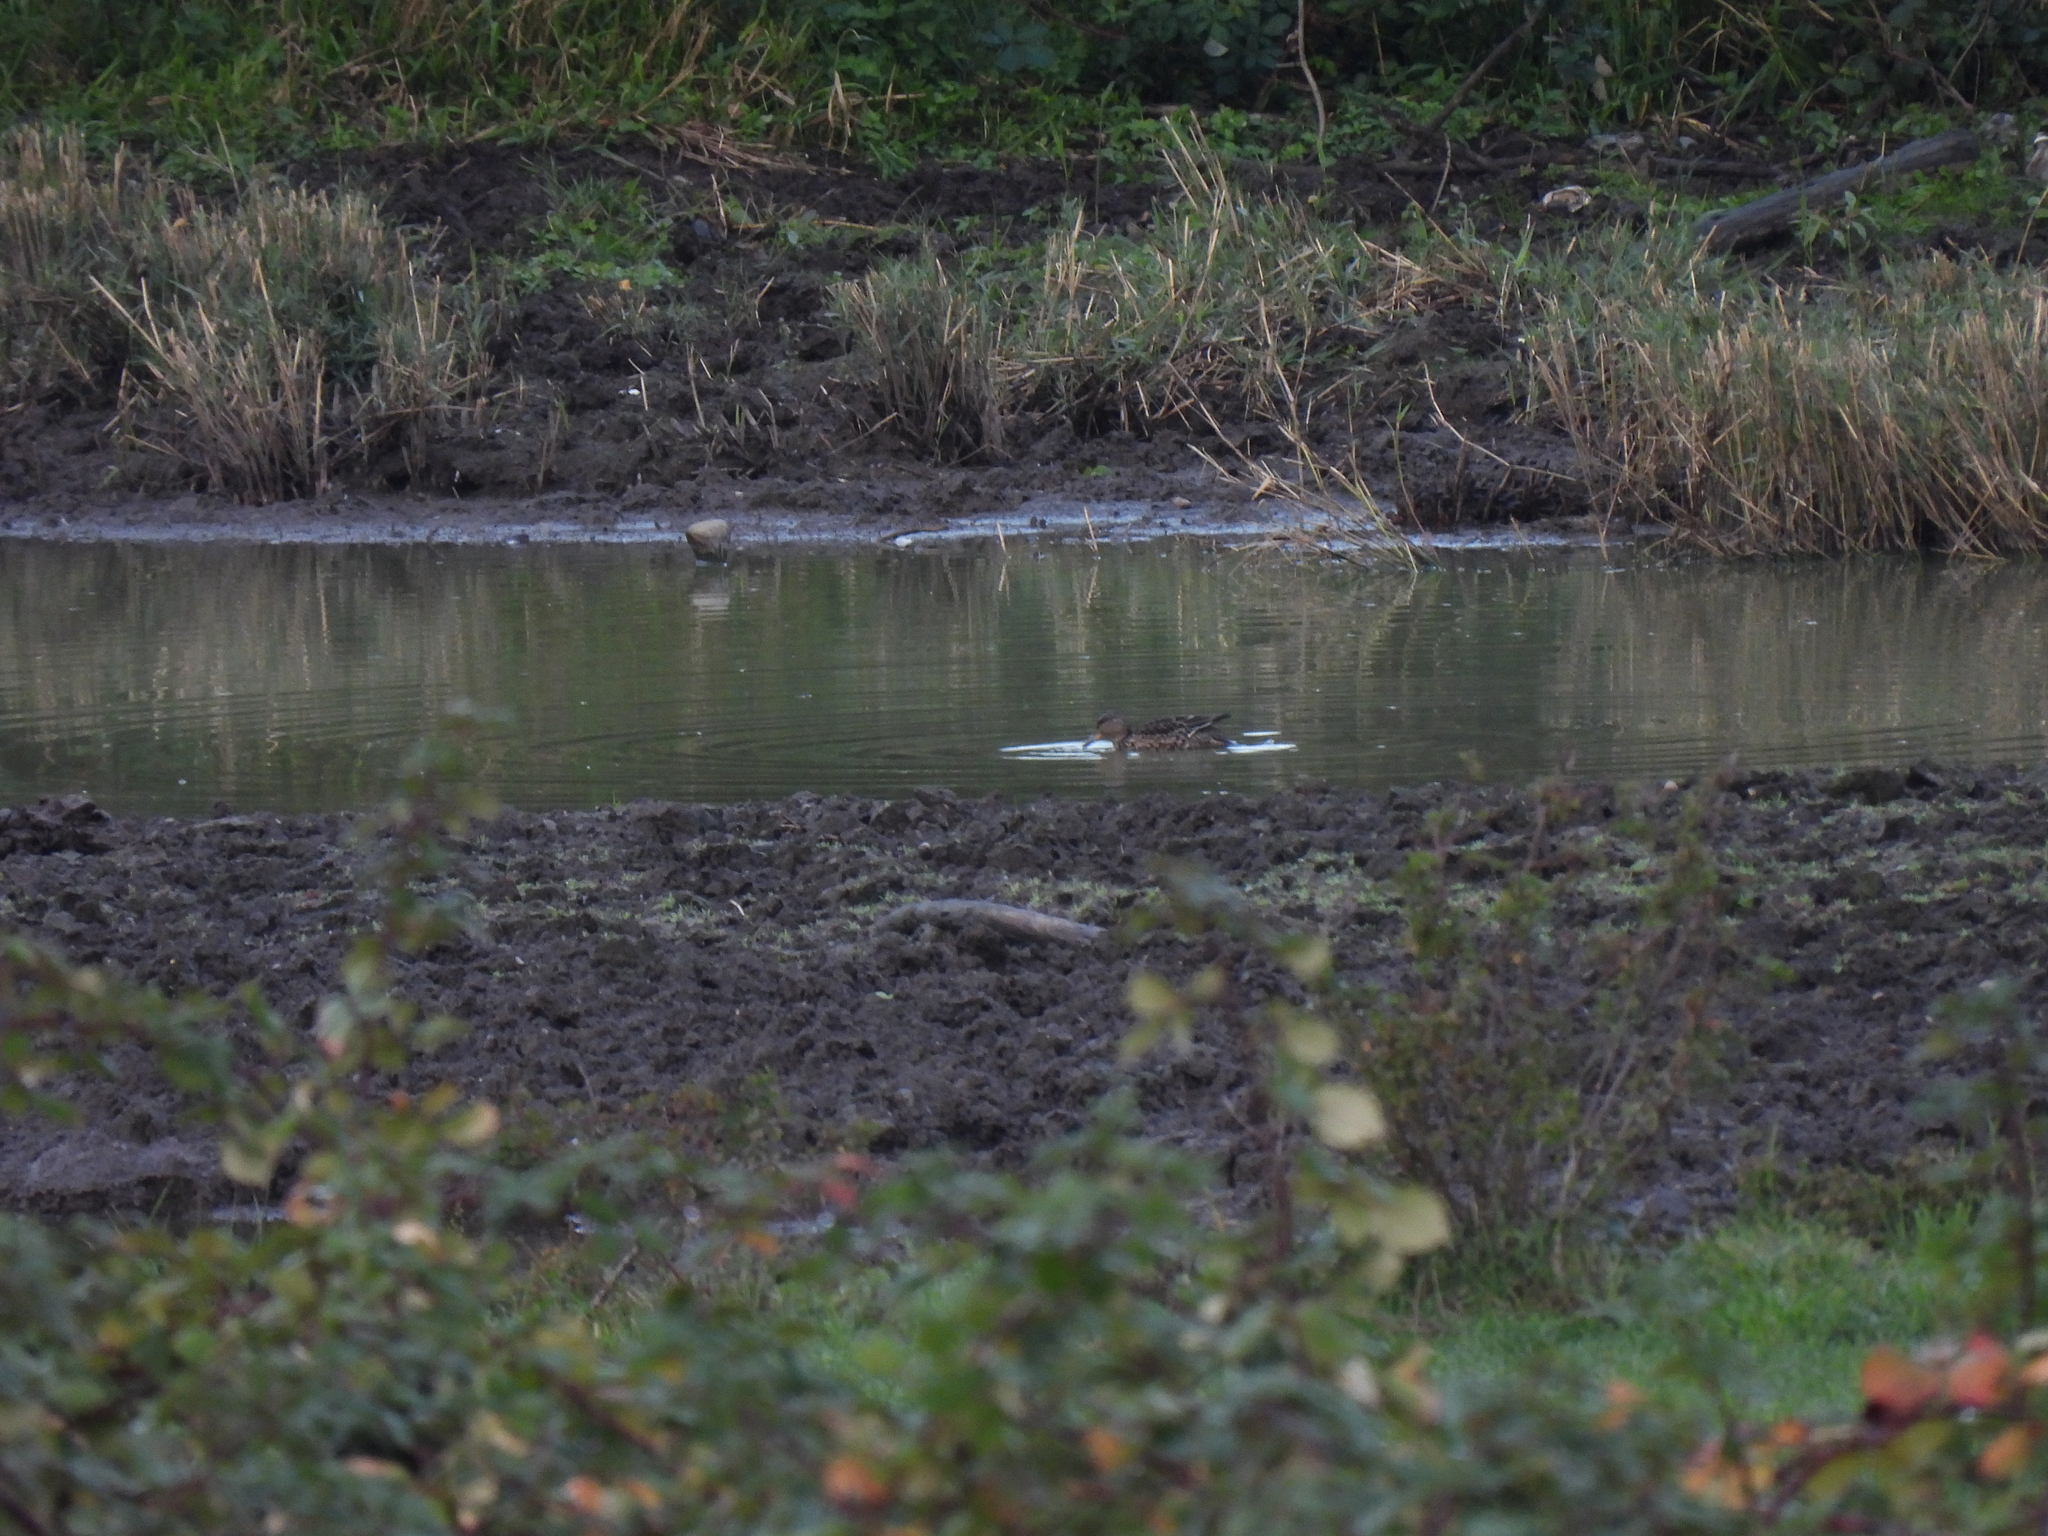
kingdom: Animalia
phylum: Chordata
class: Aves
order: Anseriformes
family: Anatidae
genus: Anas
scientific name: Anas platyrhynchos
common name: Mallard
